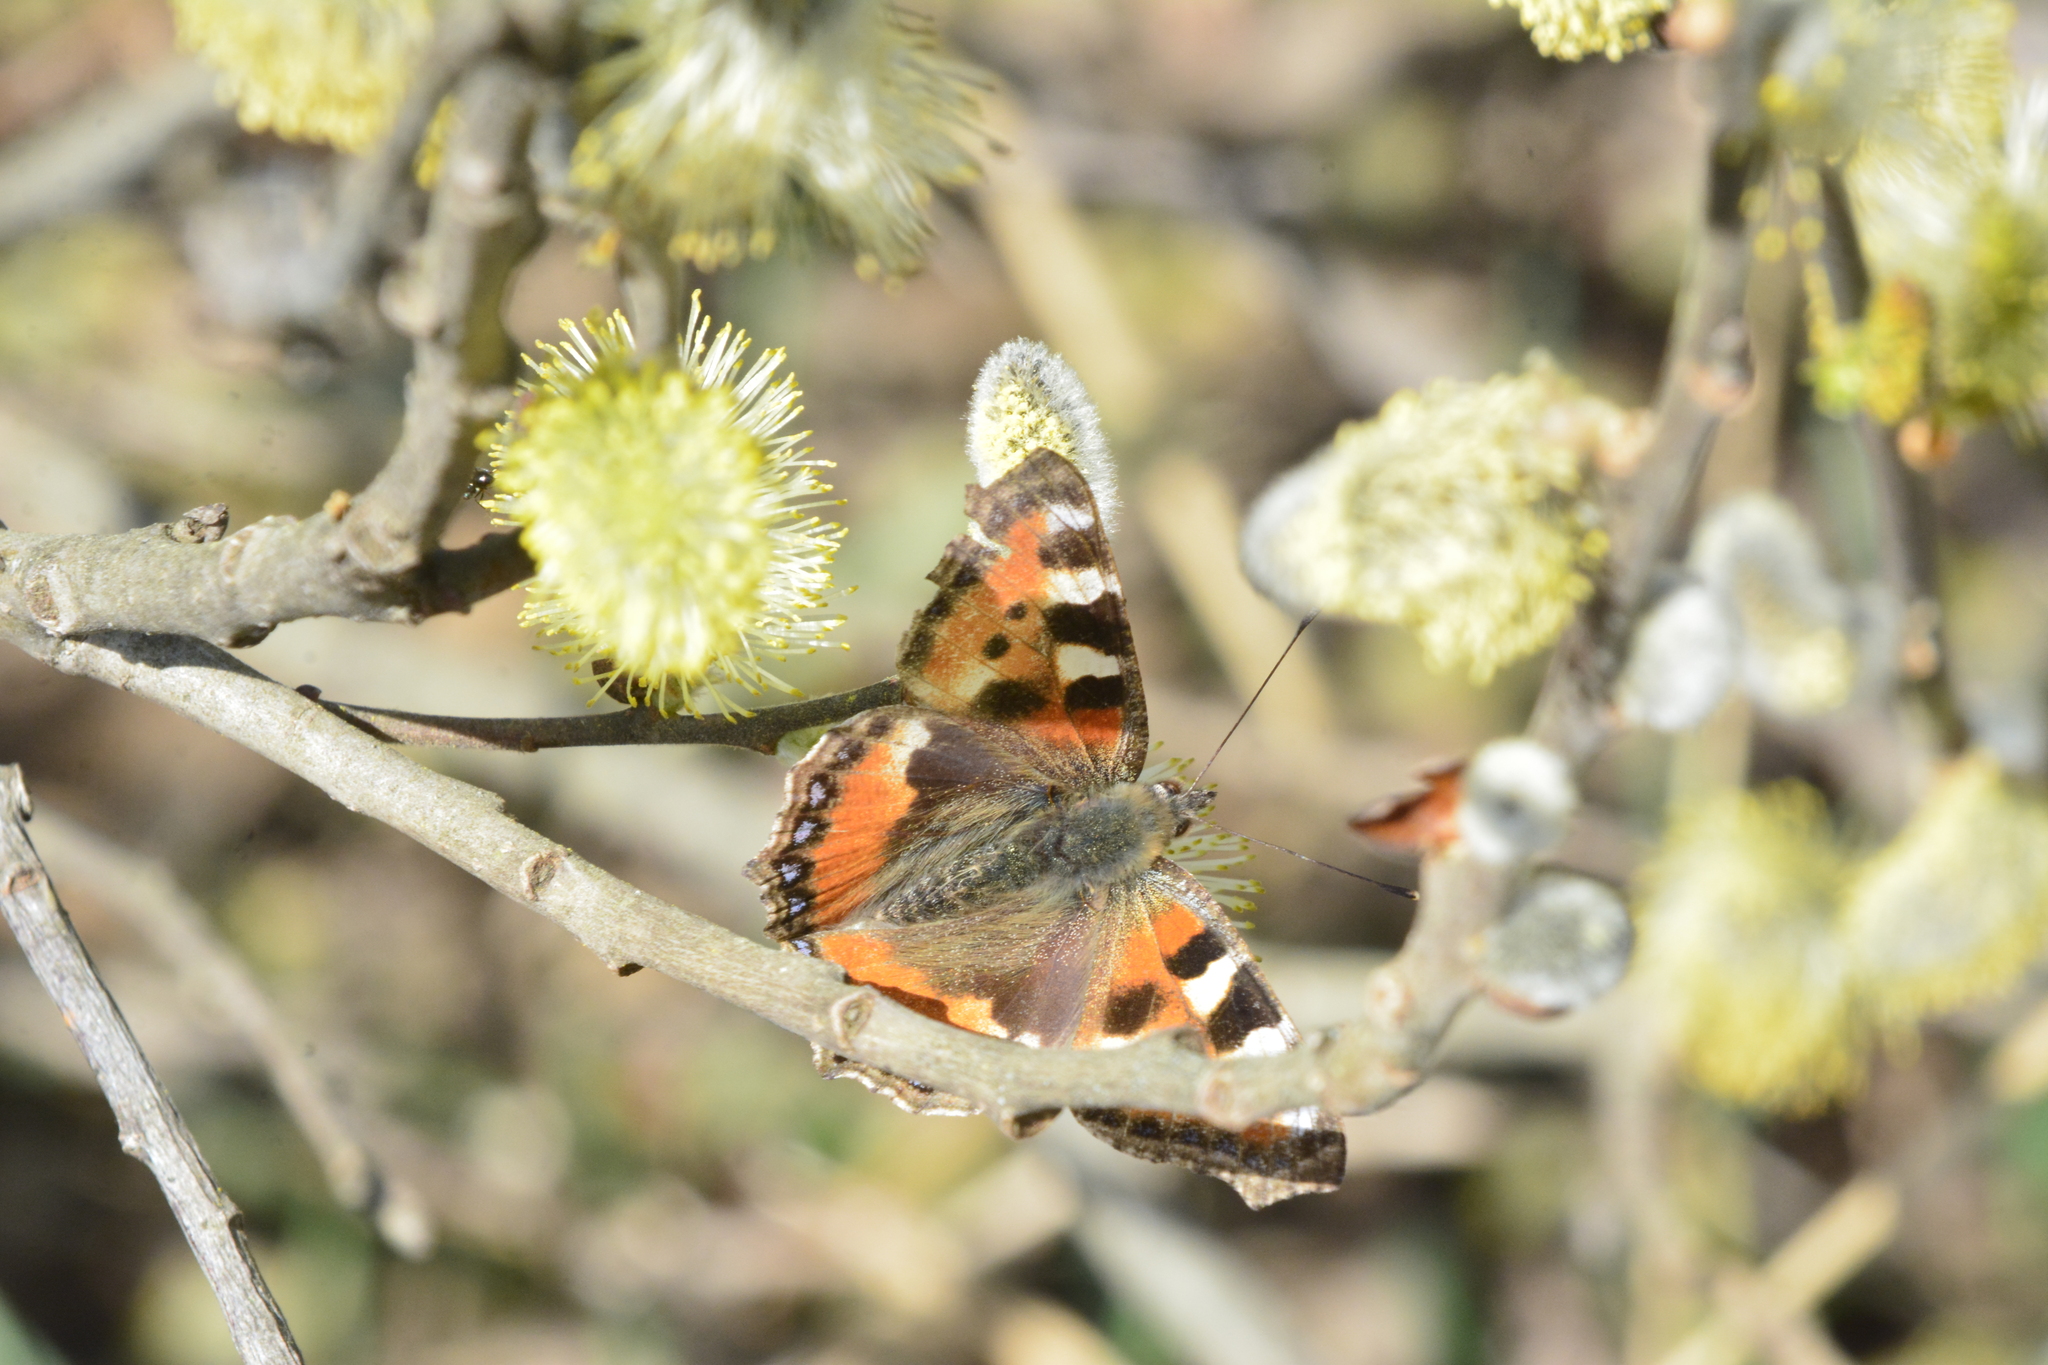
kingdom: Animalia
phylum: Arthropoda
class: Insecta
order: Lepidoptera
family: Nymphalidae
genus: Aglais
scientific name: Aglais urticae
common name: Small tortoiseshell
